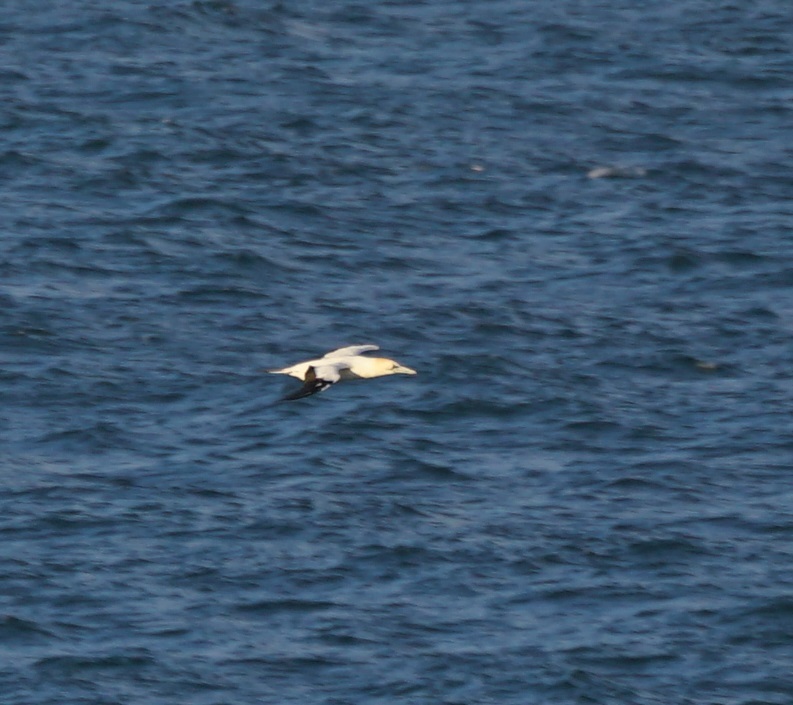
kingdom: Animalia
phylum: Chordata
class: Aves
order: Suliformes
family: Sulidae
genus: Morus
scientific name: Morus serrator
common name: Australasian gannet
